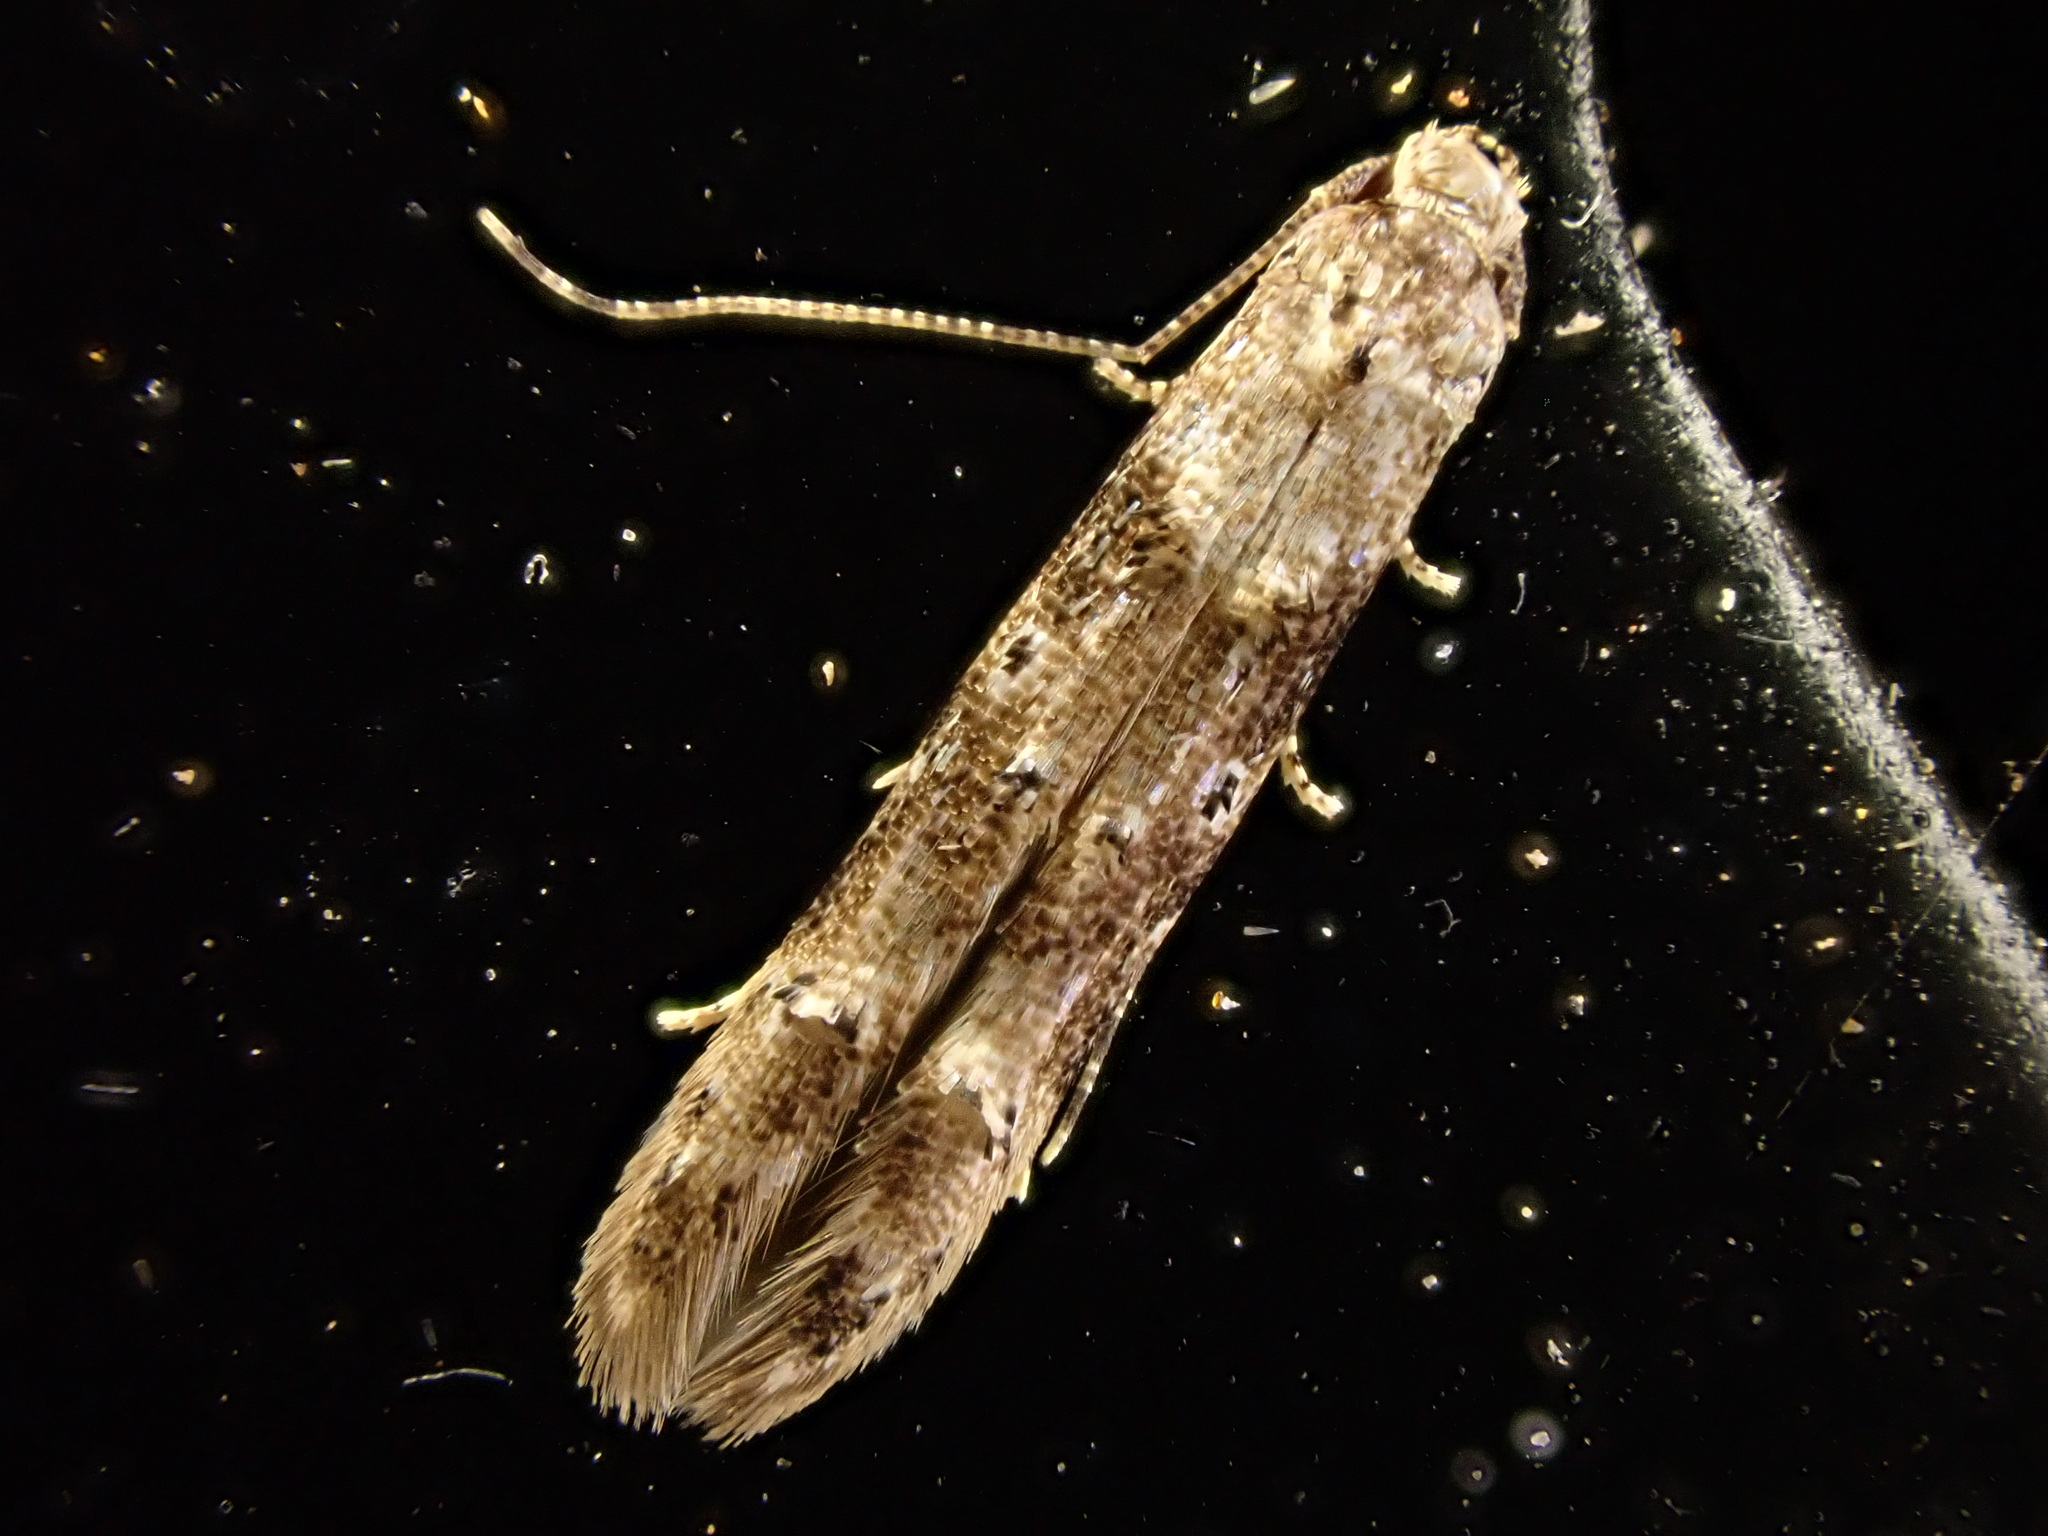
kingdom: Animalia
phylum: Arthropoda
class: Insecta
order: Lepidoptera
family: Elachistidae
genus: Microcolona
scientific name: Microcolona limodes
